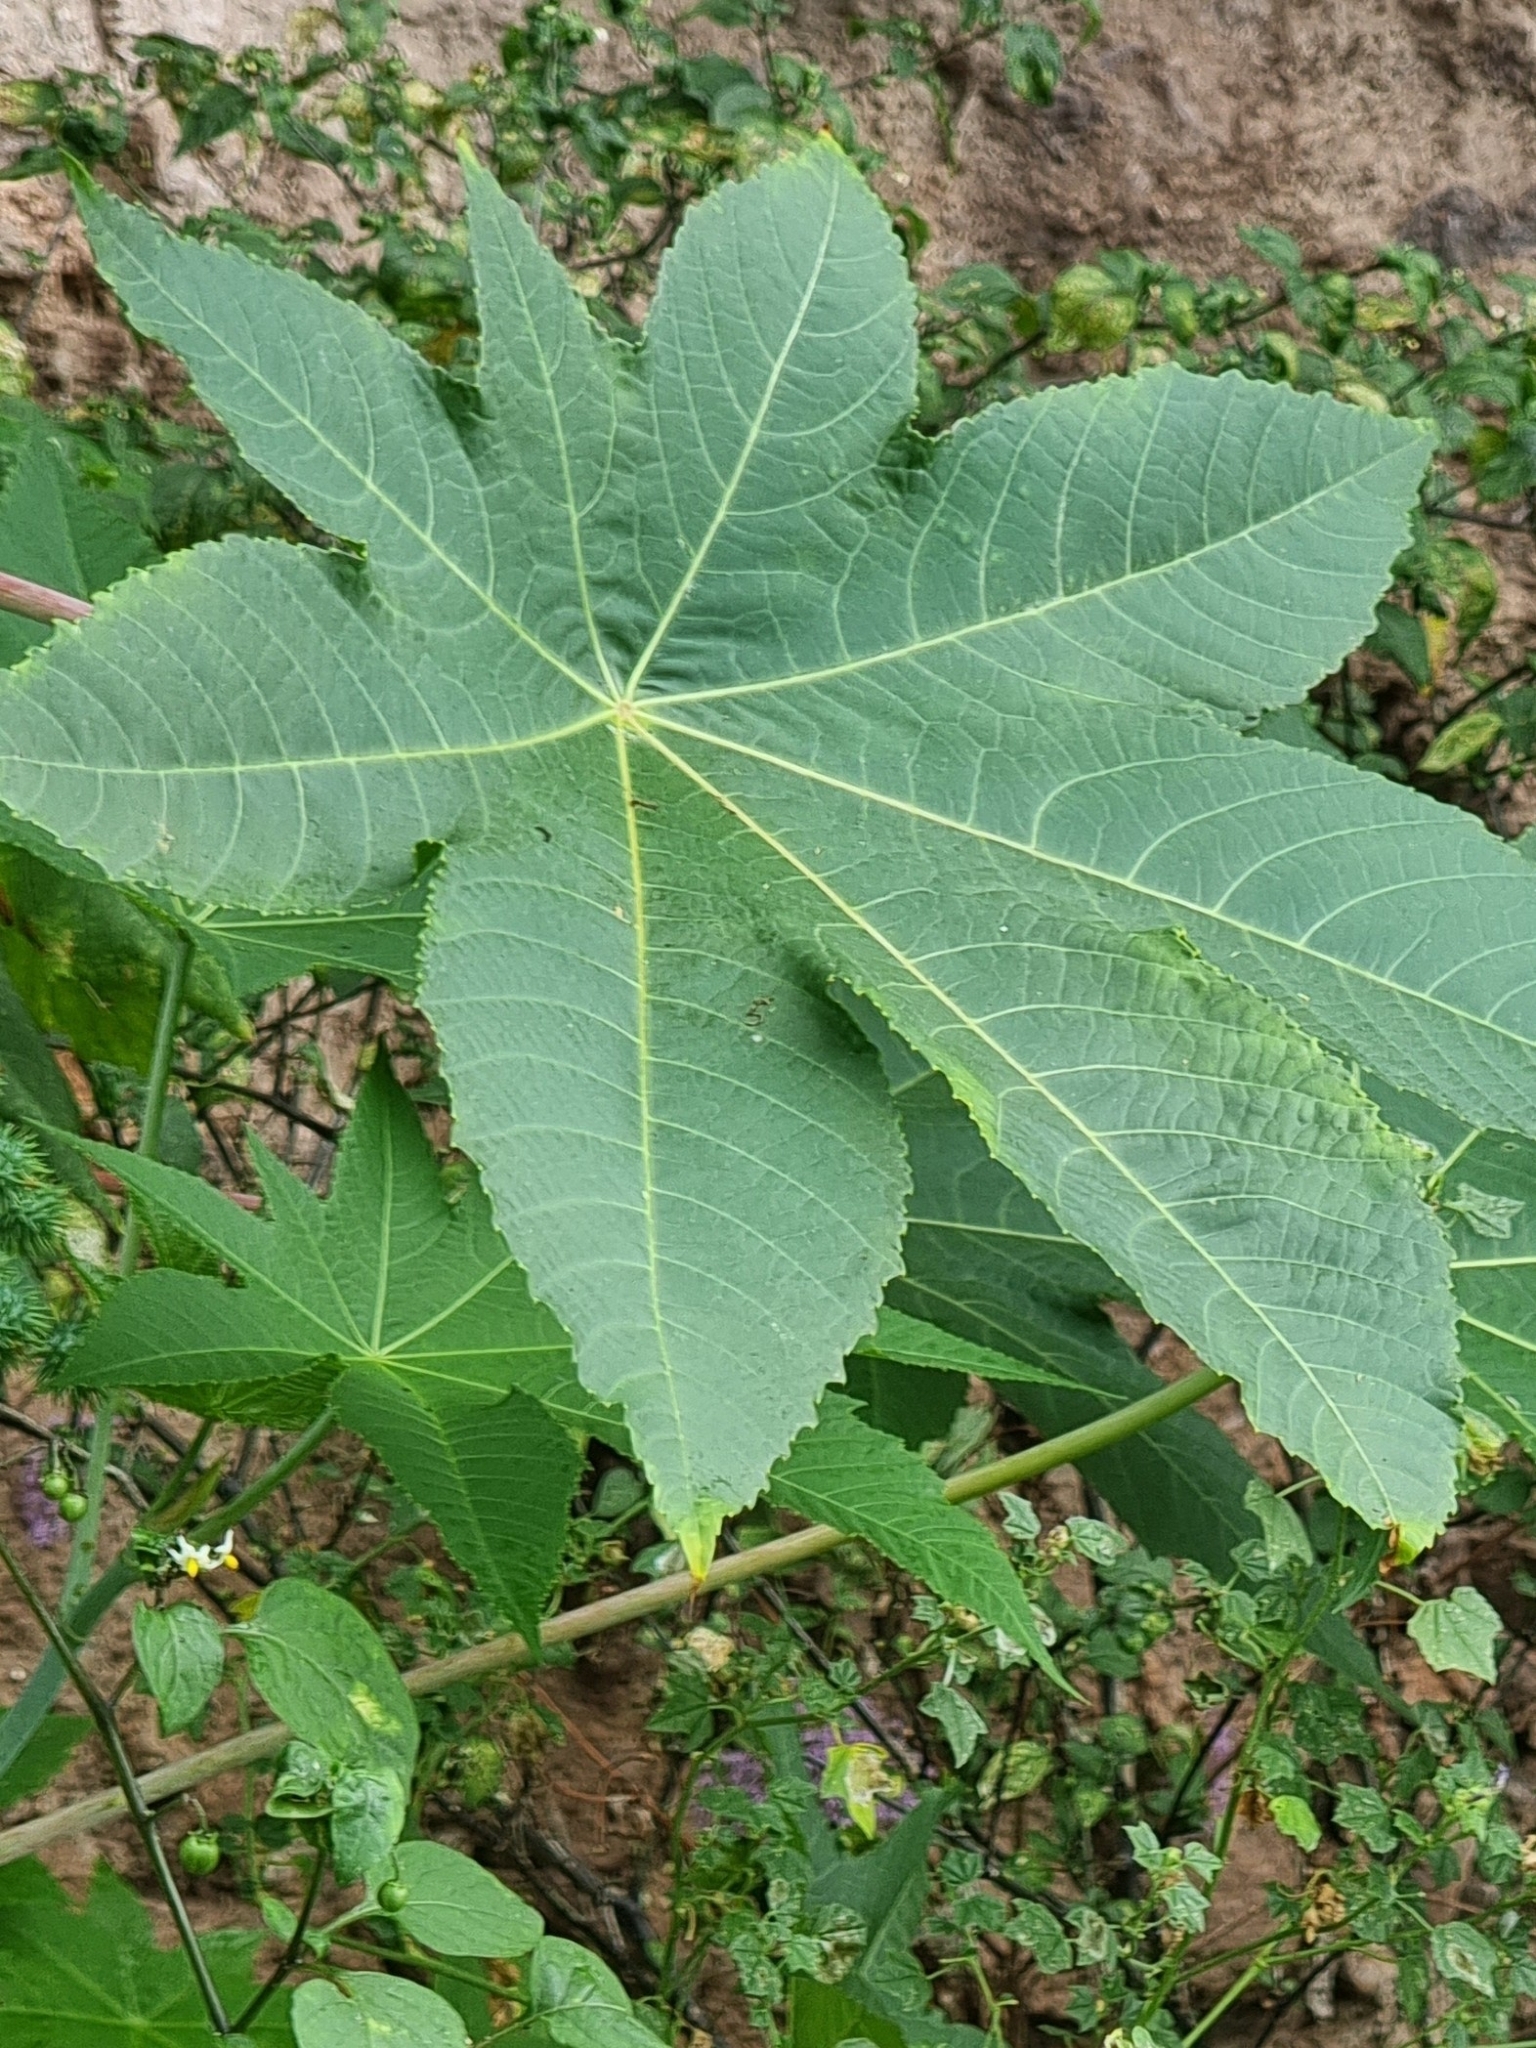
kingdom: Plantae
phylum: Tracheophyta
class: Magnoliopsida
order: Malpighiales
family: Euphorbiaceae
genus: Ricinus
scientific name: Ricinus communis
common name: Castor-oil-plant
